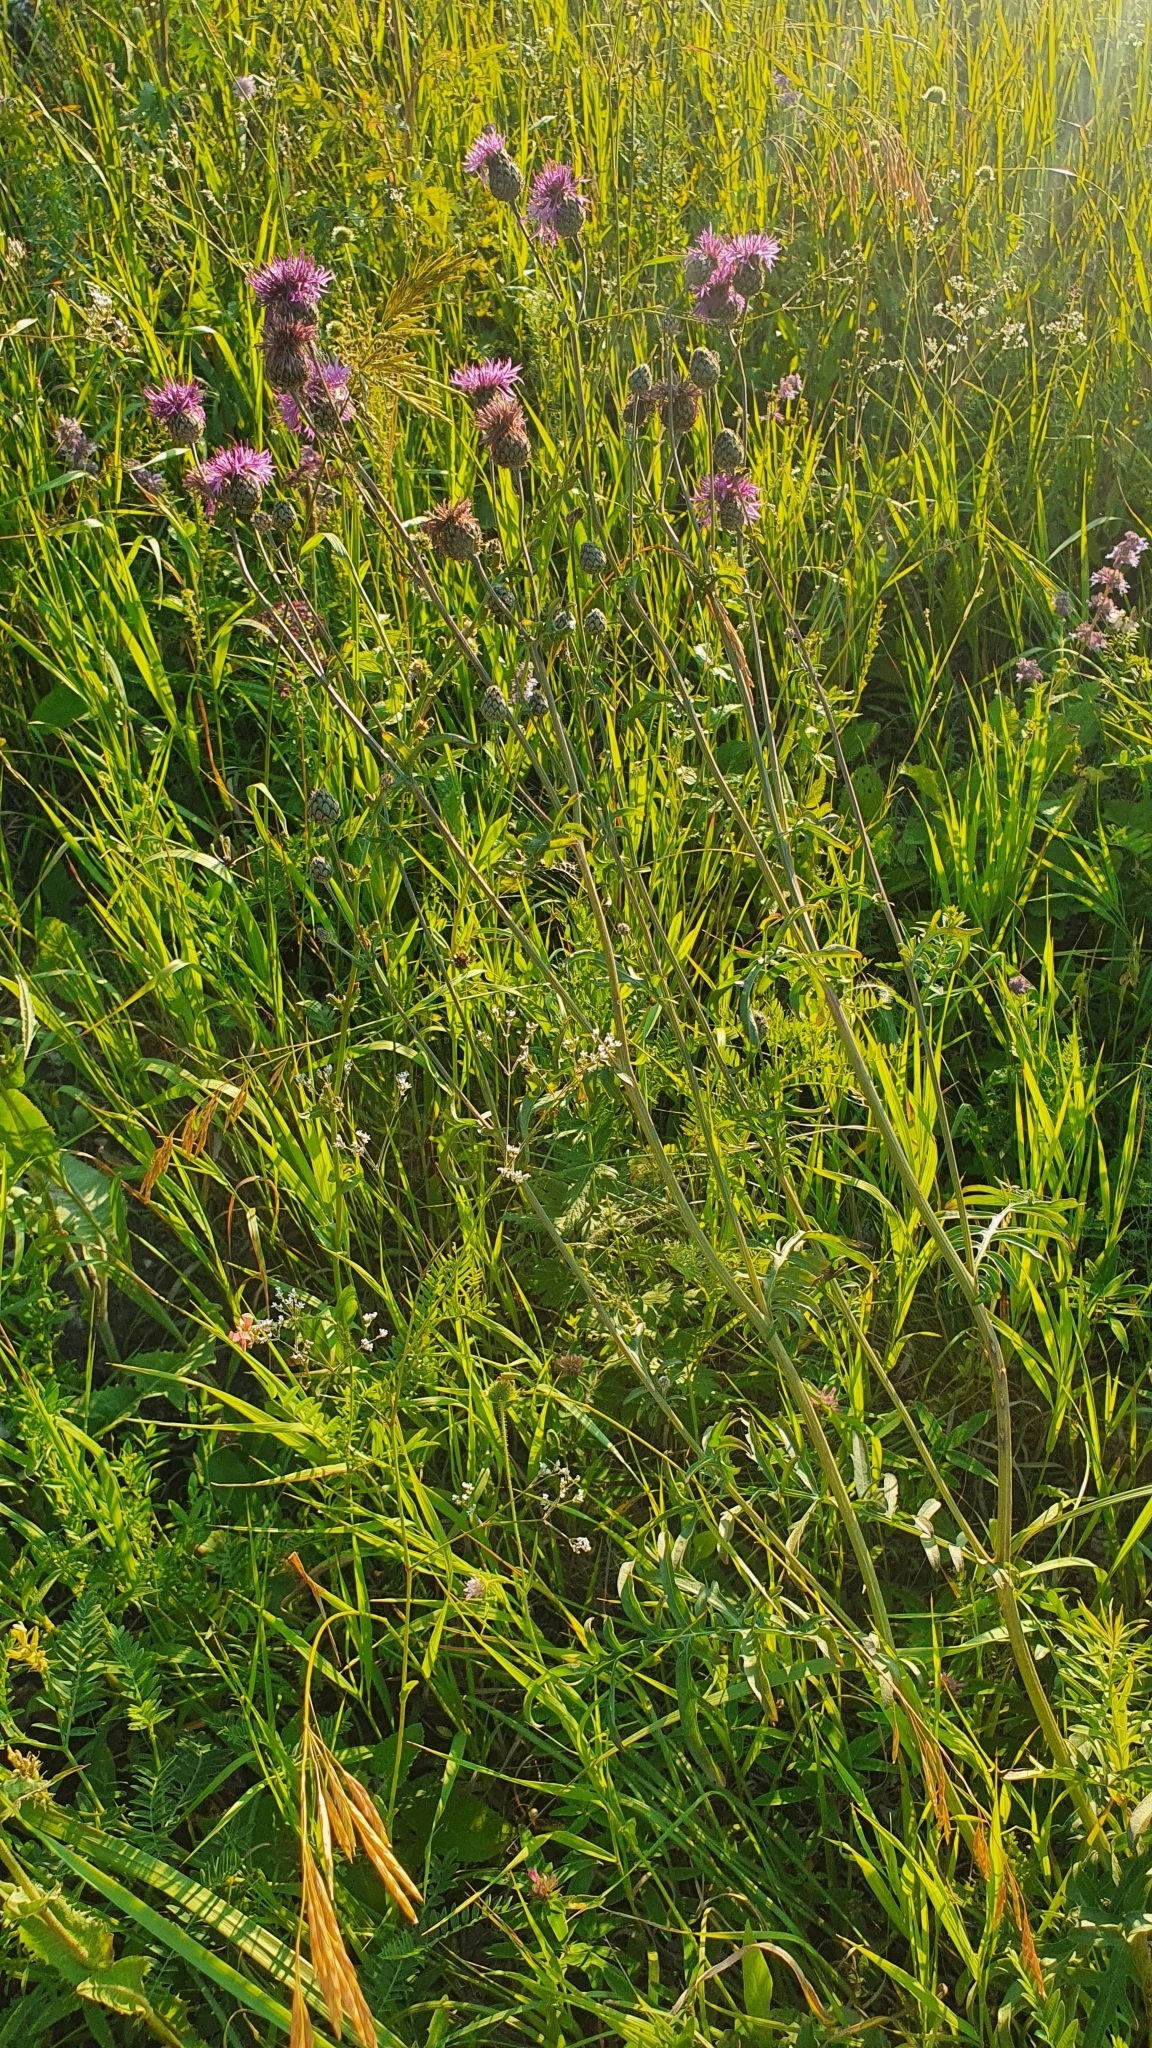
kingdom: Plantae
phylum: Tracheophyta
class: Magnoliopsida
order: Asterales
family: Asteraceae
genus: Centaurea
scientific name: Centaurea scabiosa
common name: Greater knapweed
